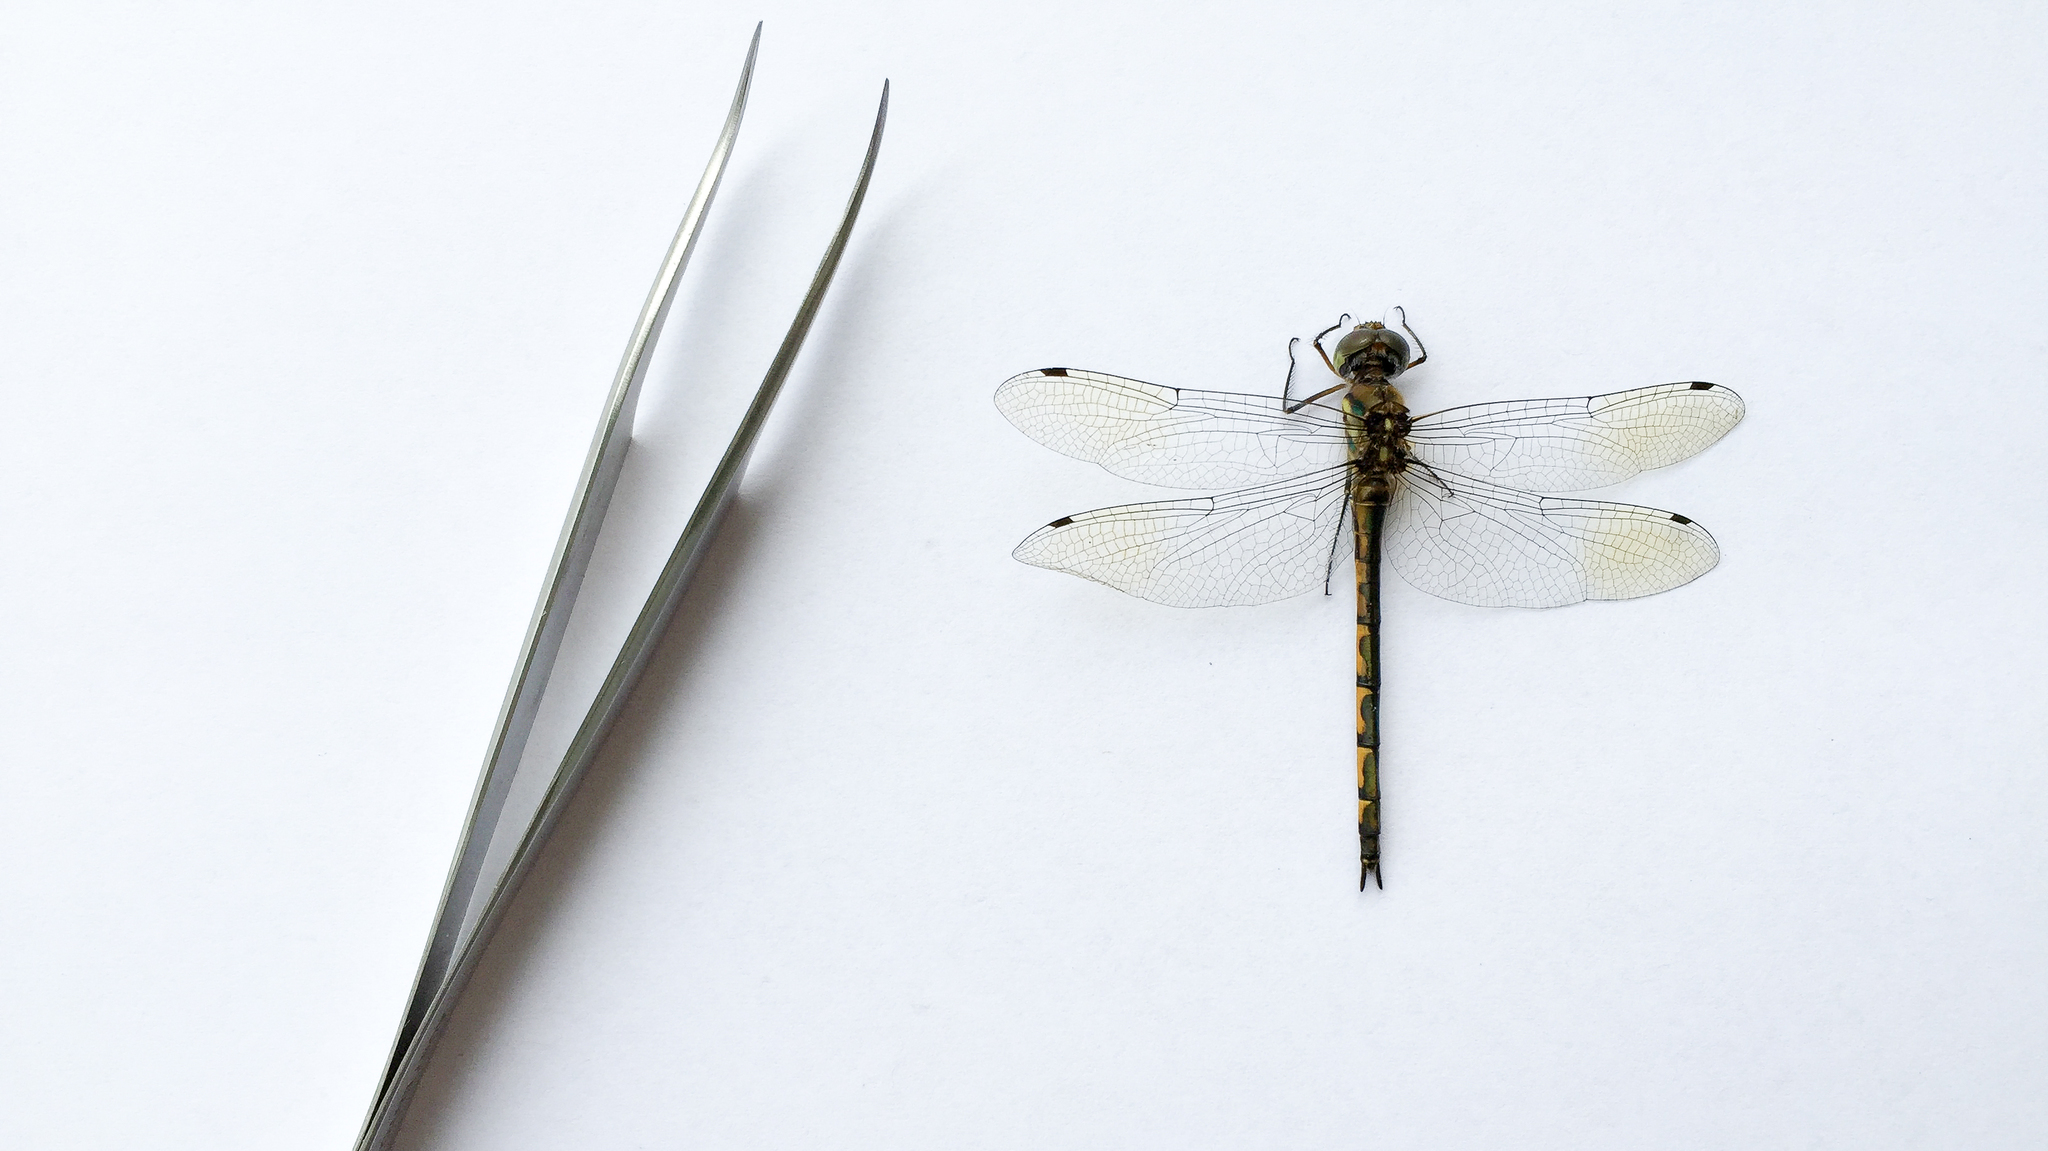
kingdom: Animalia
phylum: Arthropoda
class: Insecta
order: Odonata
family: Corduliidae
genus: Hemicordulia
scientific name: Hemicordulia australiae
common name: Sentry dragonfly
